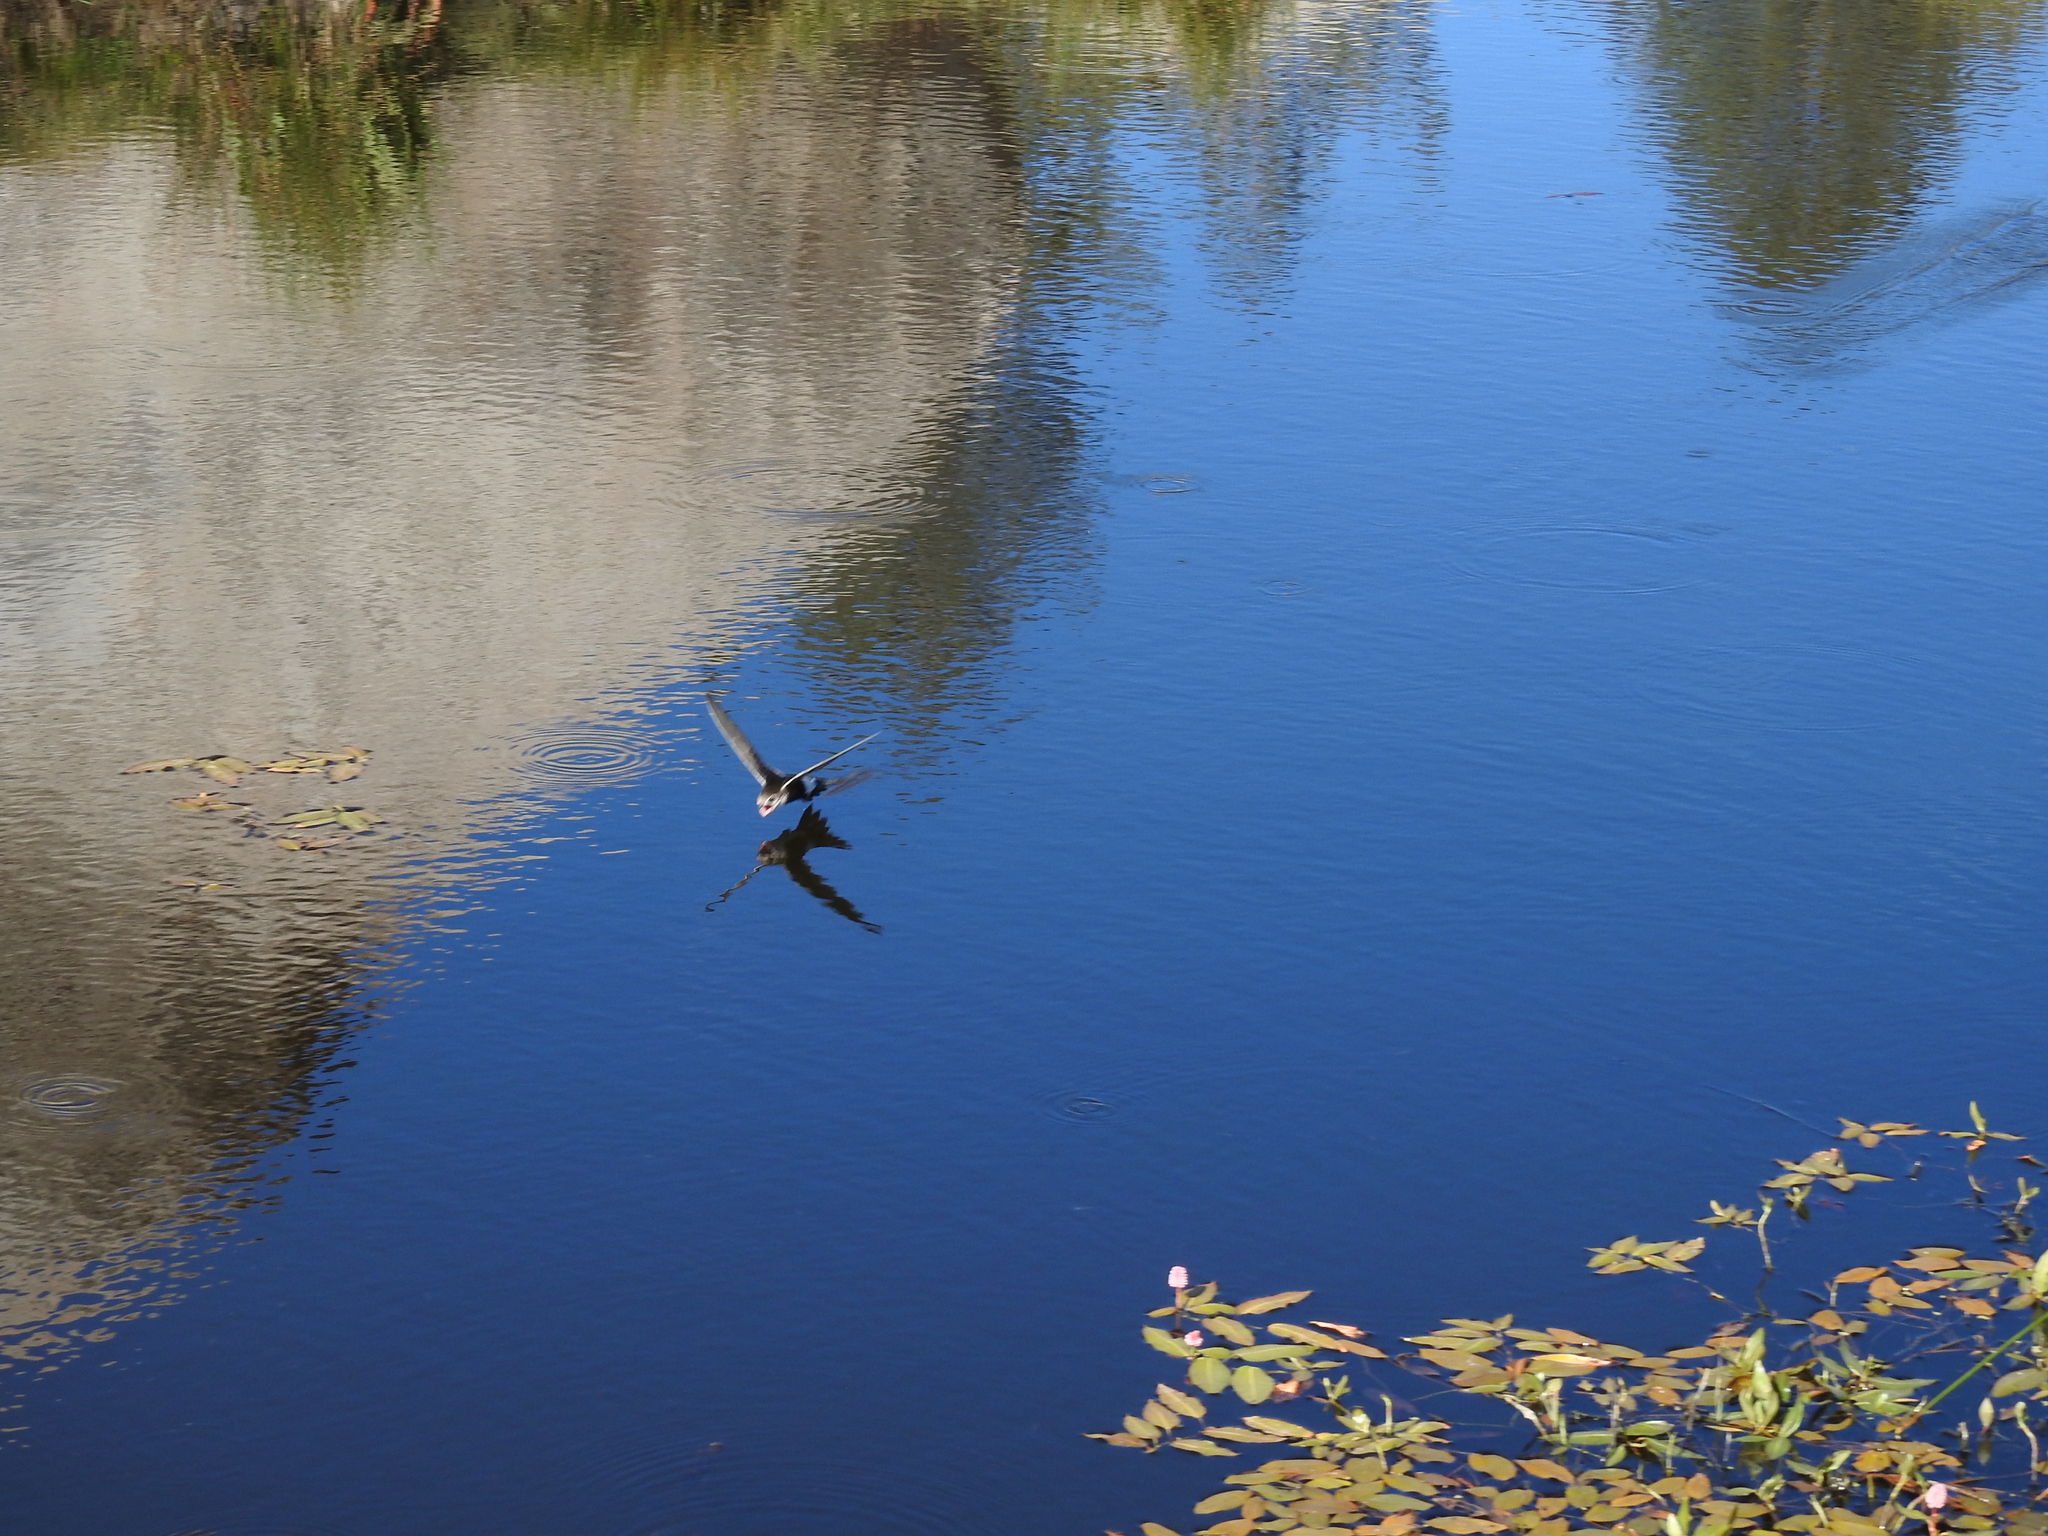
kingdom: Animalia
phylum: Chordata
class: Aves
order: Apodiformes
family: Apodidae
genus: Aeronautes
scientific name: Aeronautes saxatalis
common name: White-throated swift
